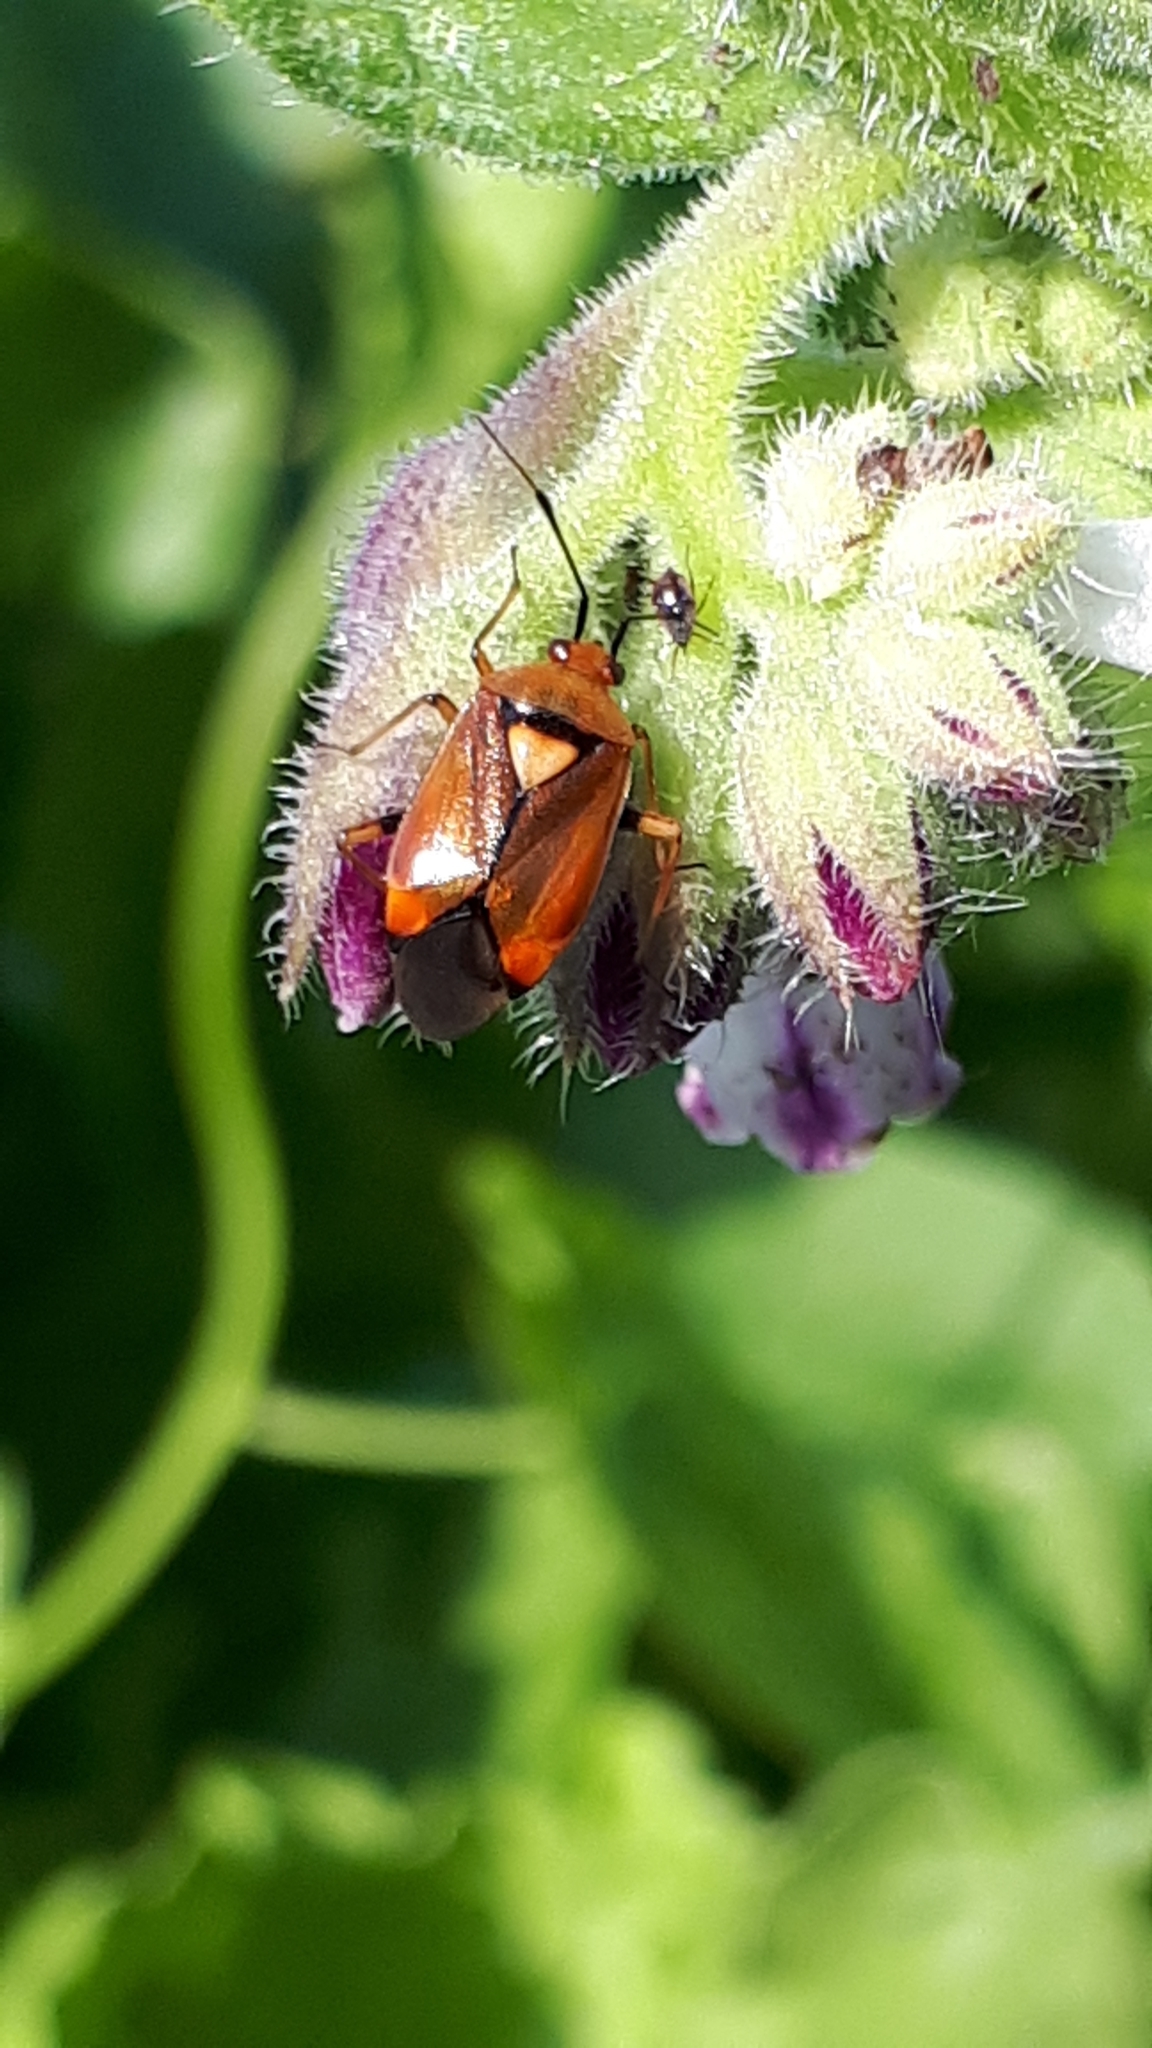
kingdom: Animalia
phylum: Arthropoda
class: Insecta
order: Hemiptera
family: Miridae
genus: Deraeocoris
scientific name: Deraeocoris ruber
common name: Plant bug
